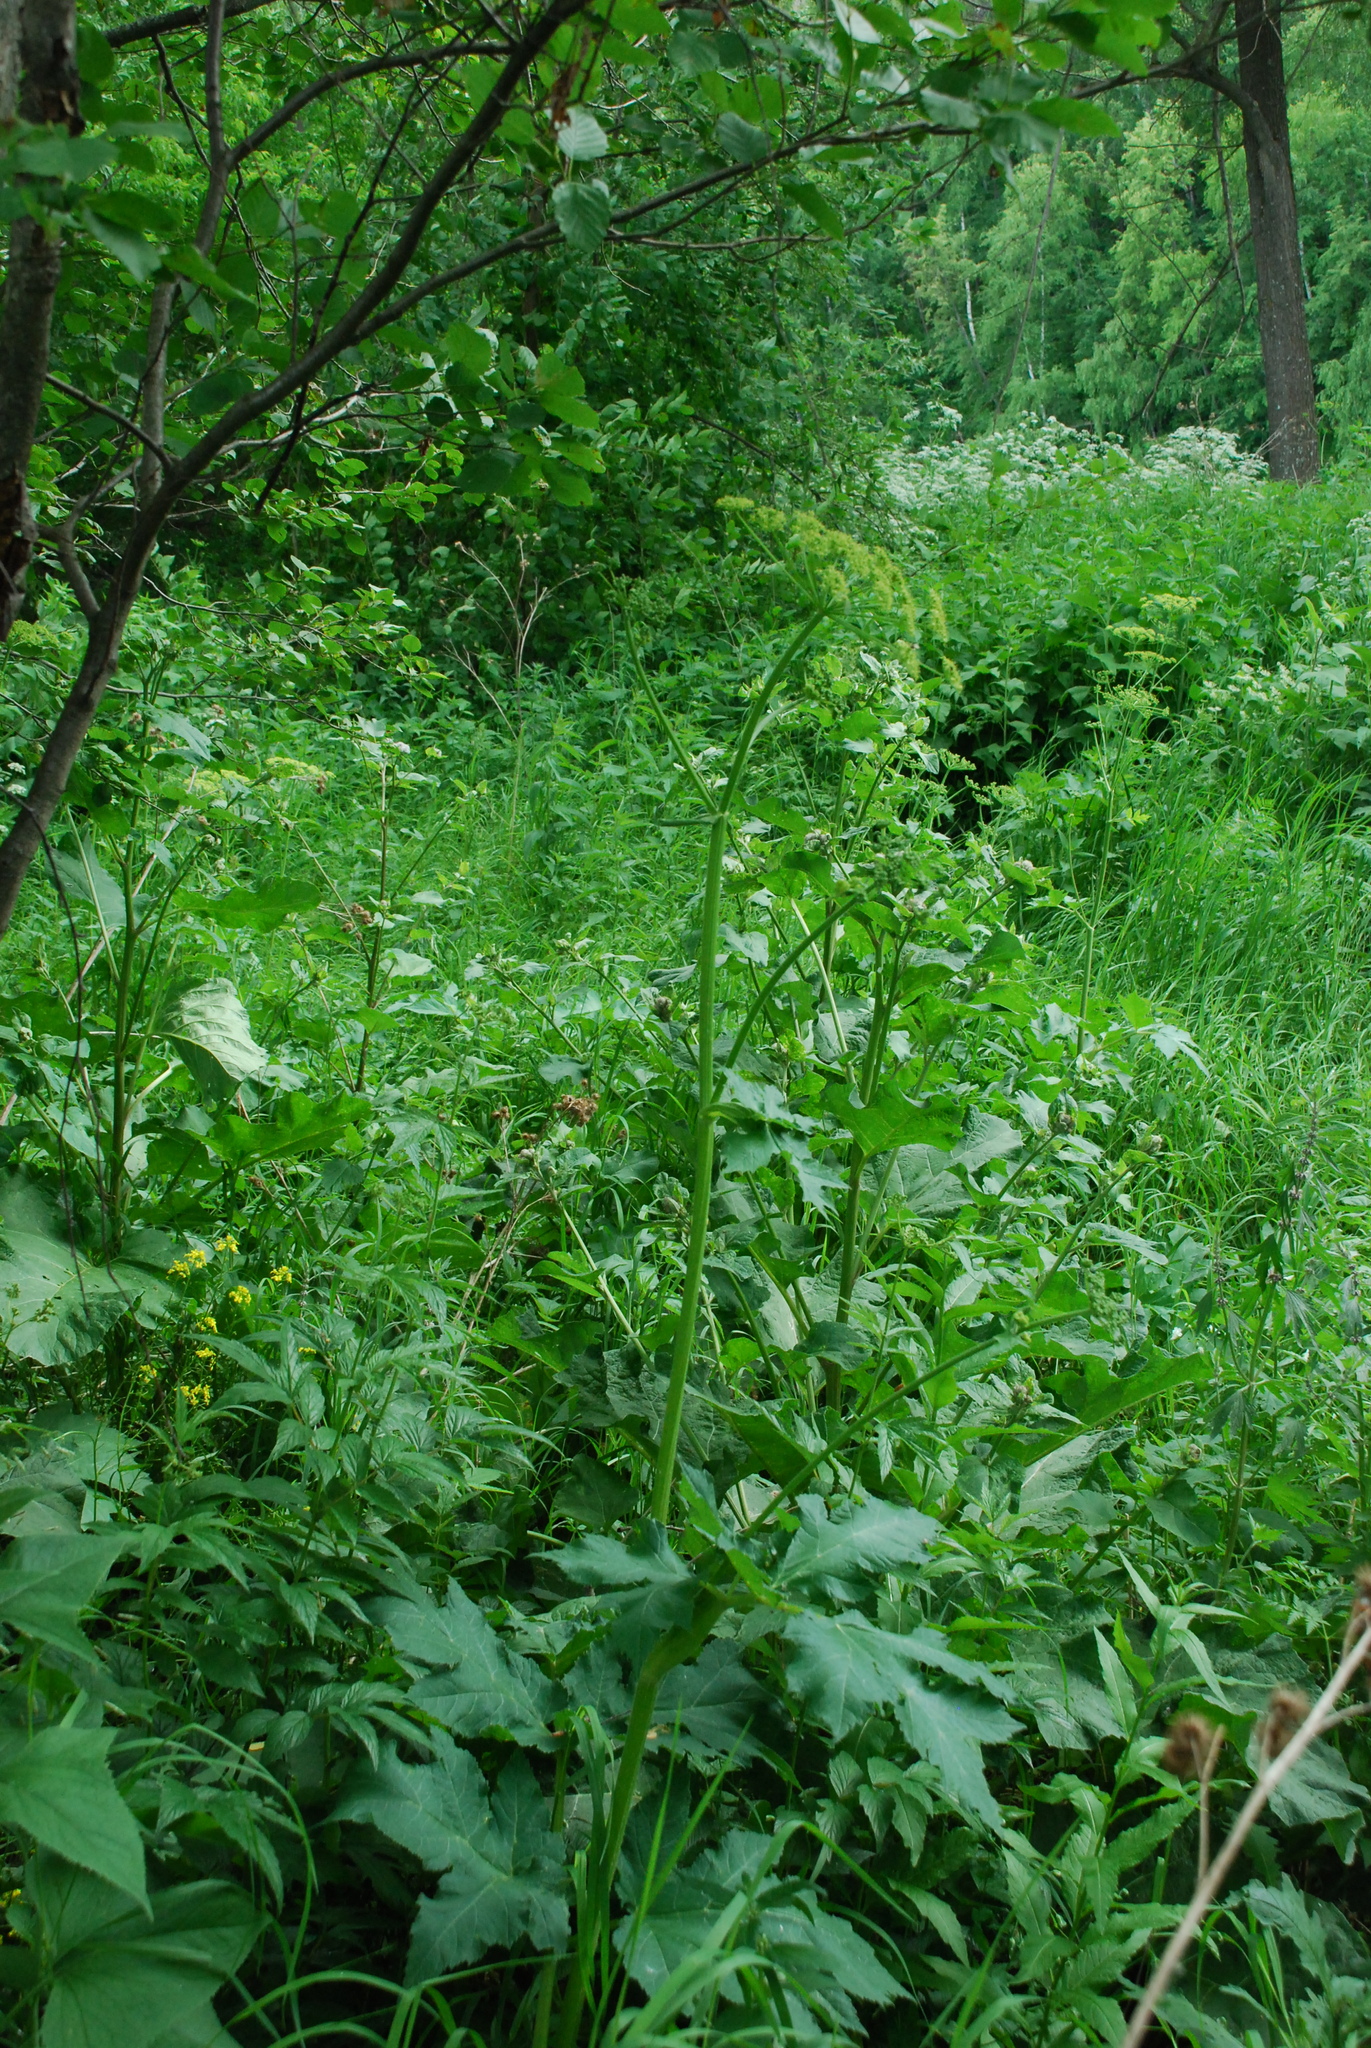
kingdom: Plantae
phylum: Tracheophyta
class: Magnoliopsida
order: Apiales
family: Apiaceae
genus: Heracleum
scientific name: Heracleum sphondylium
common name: Hogweed
